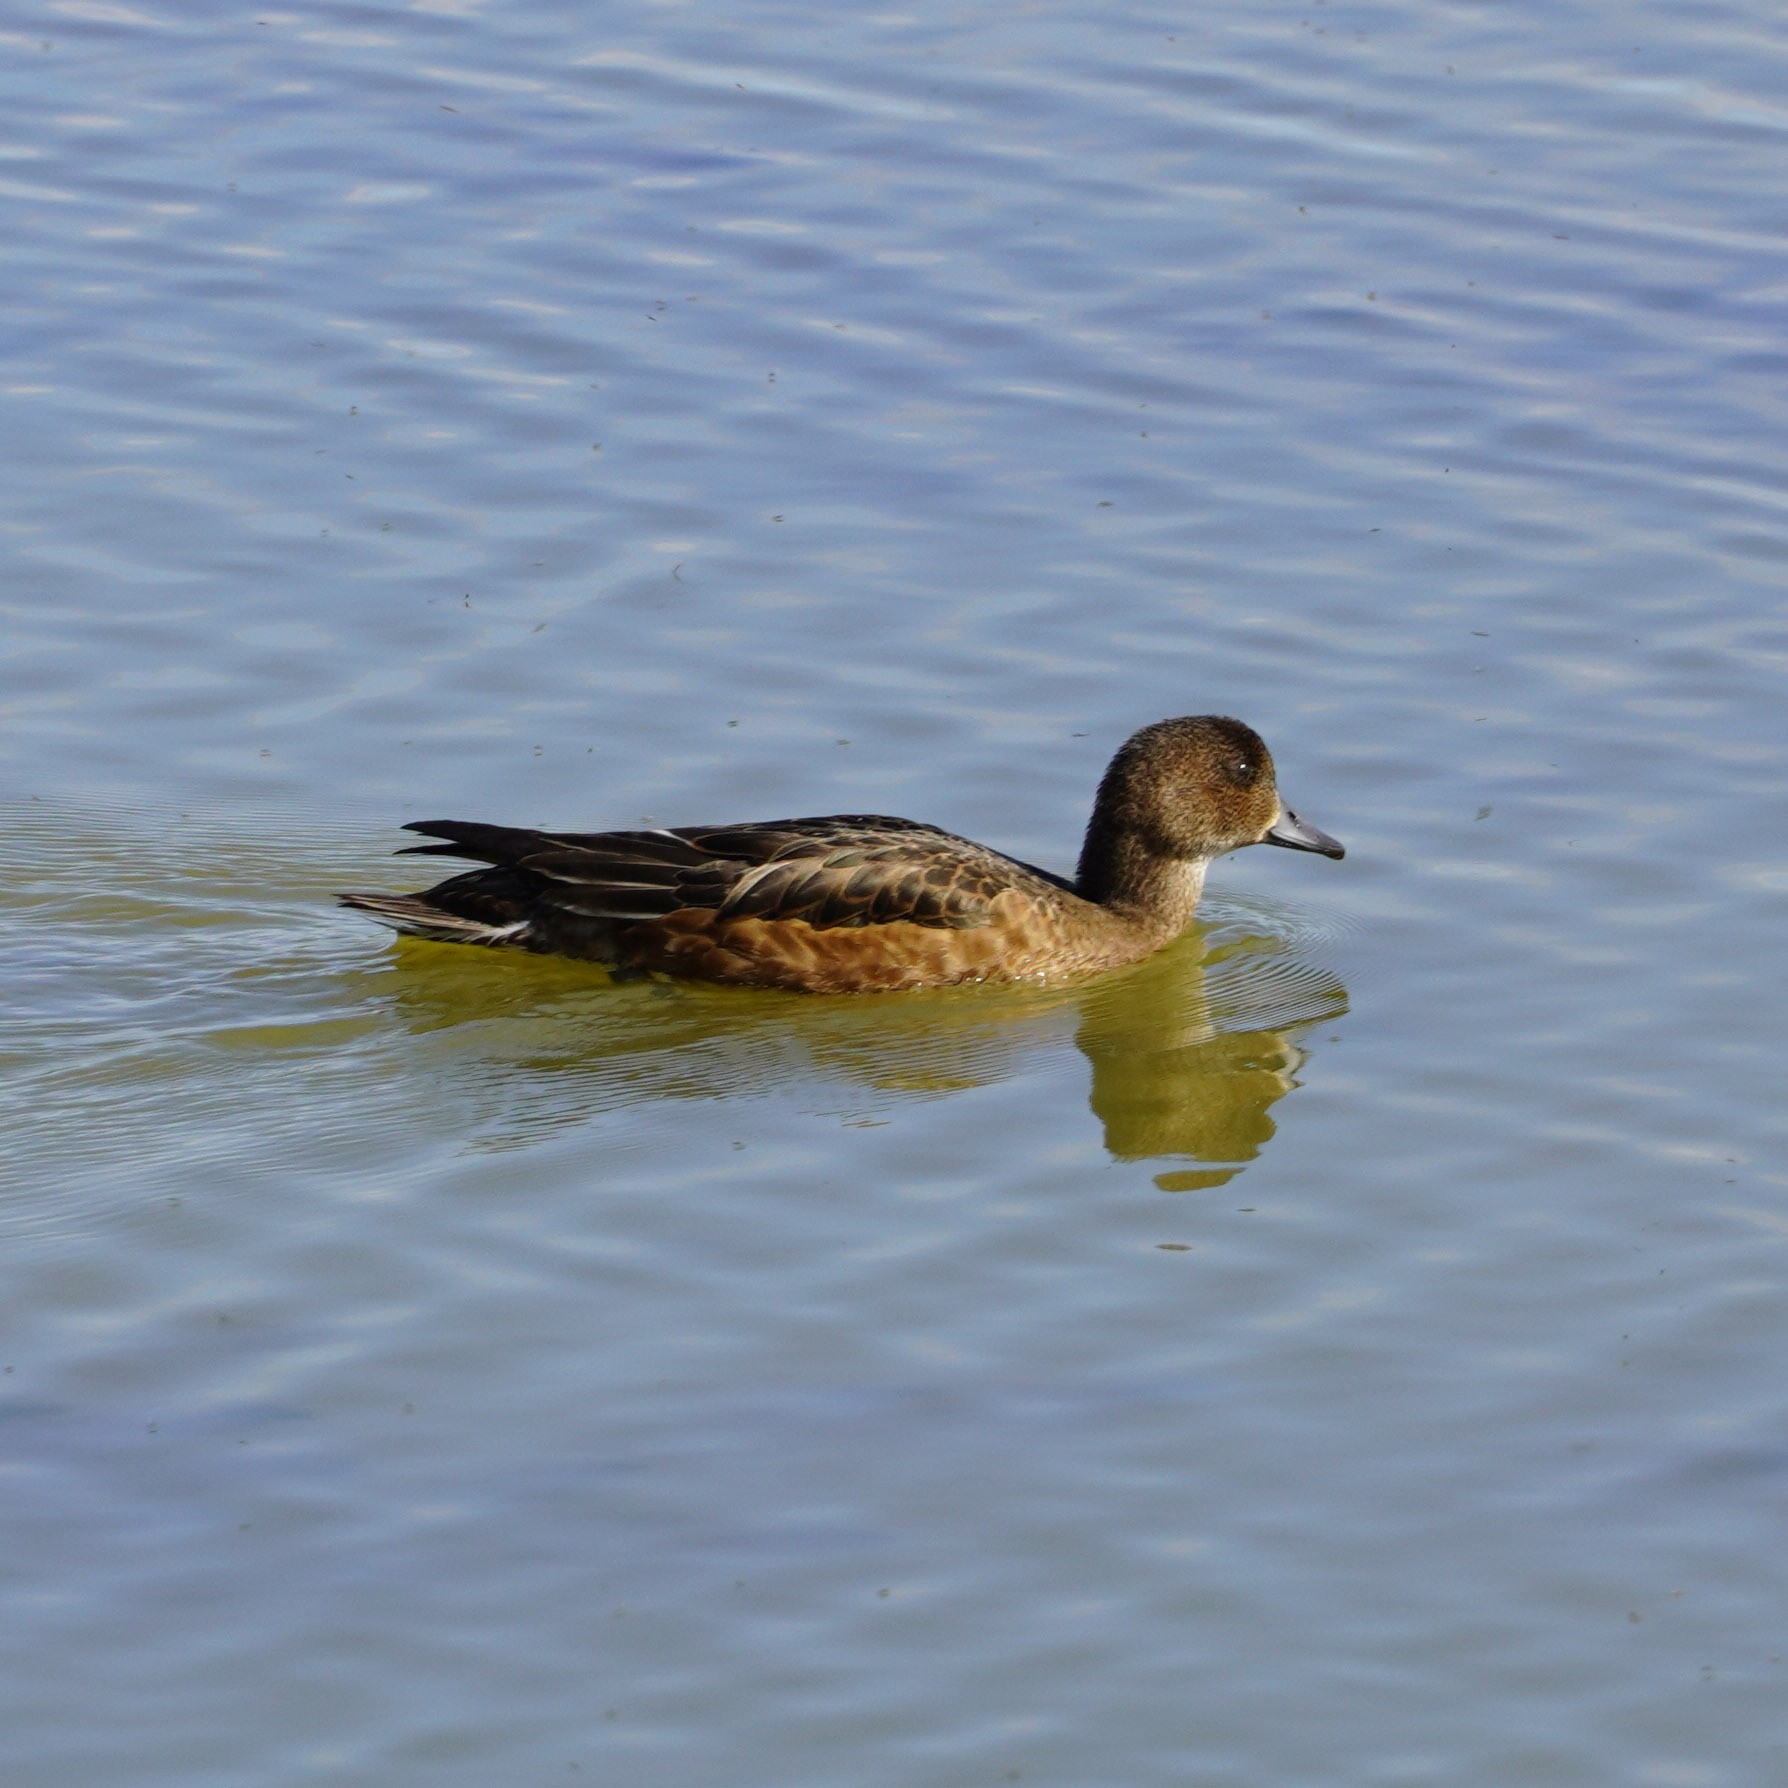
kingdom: Animalia
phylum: Chordata
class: Aves
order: Anseriformes
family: Anatidae
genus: Mareca
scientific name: Mareca penelope
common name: Eurasian wigeon
